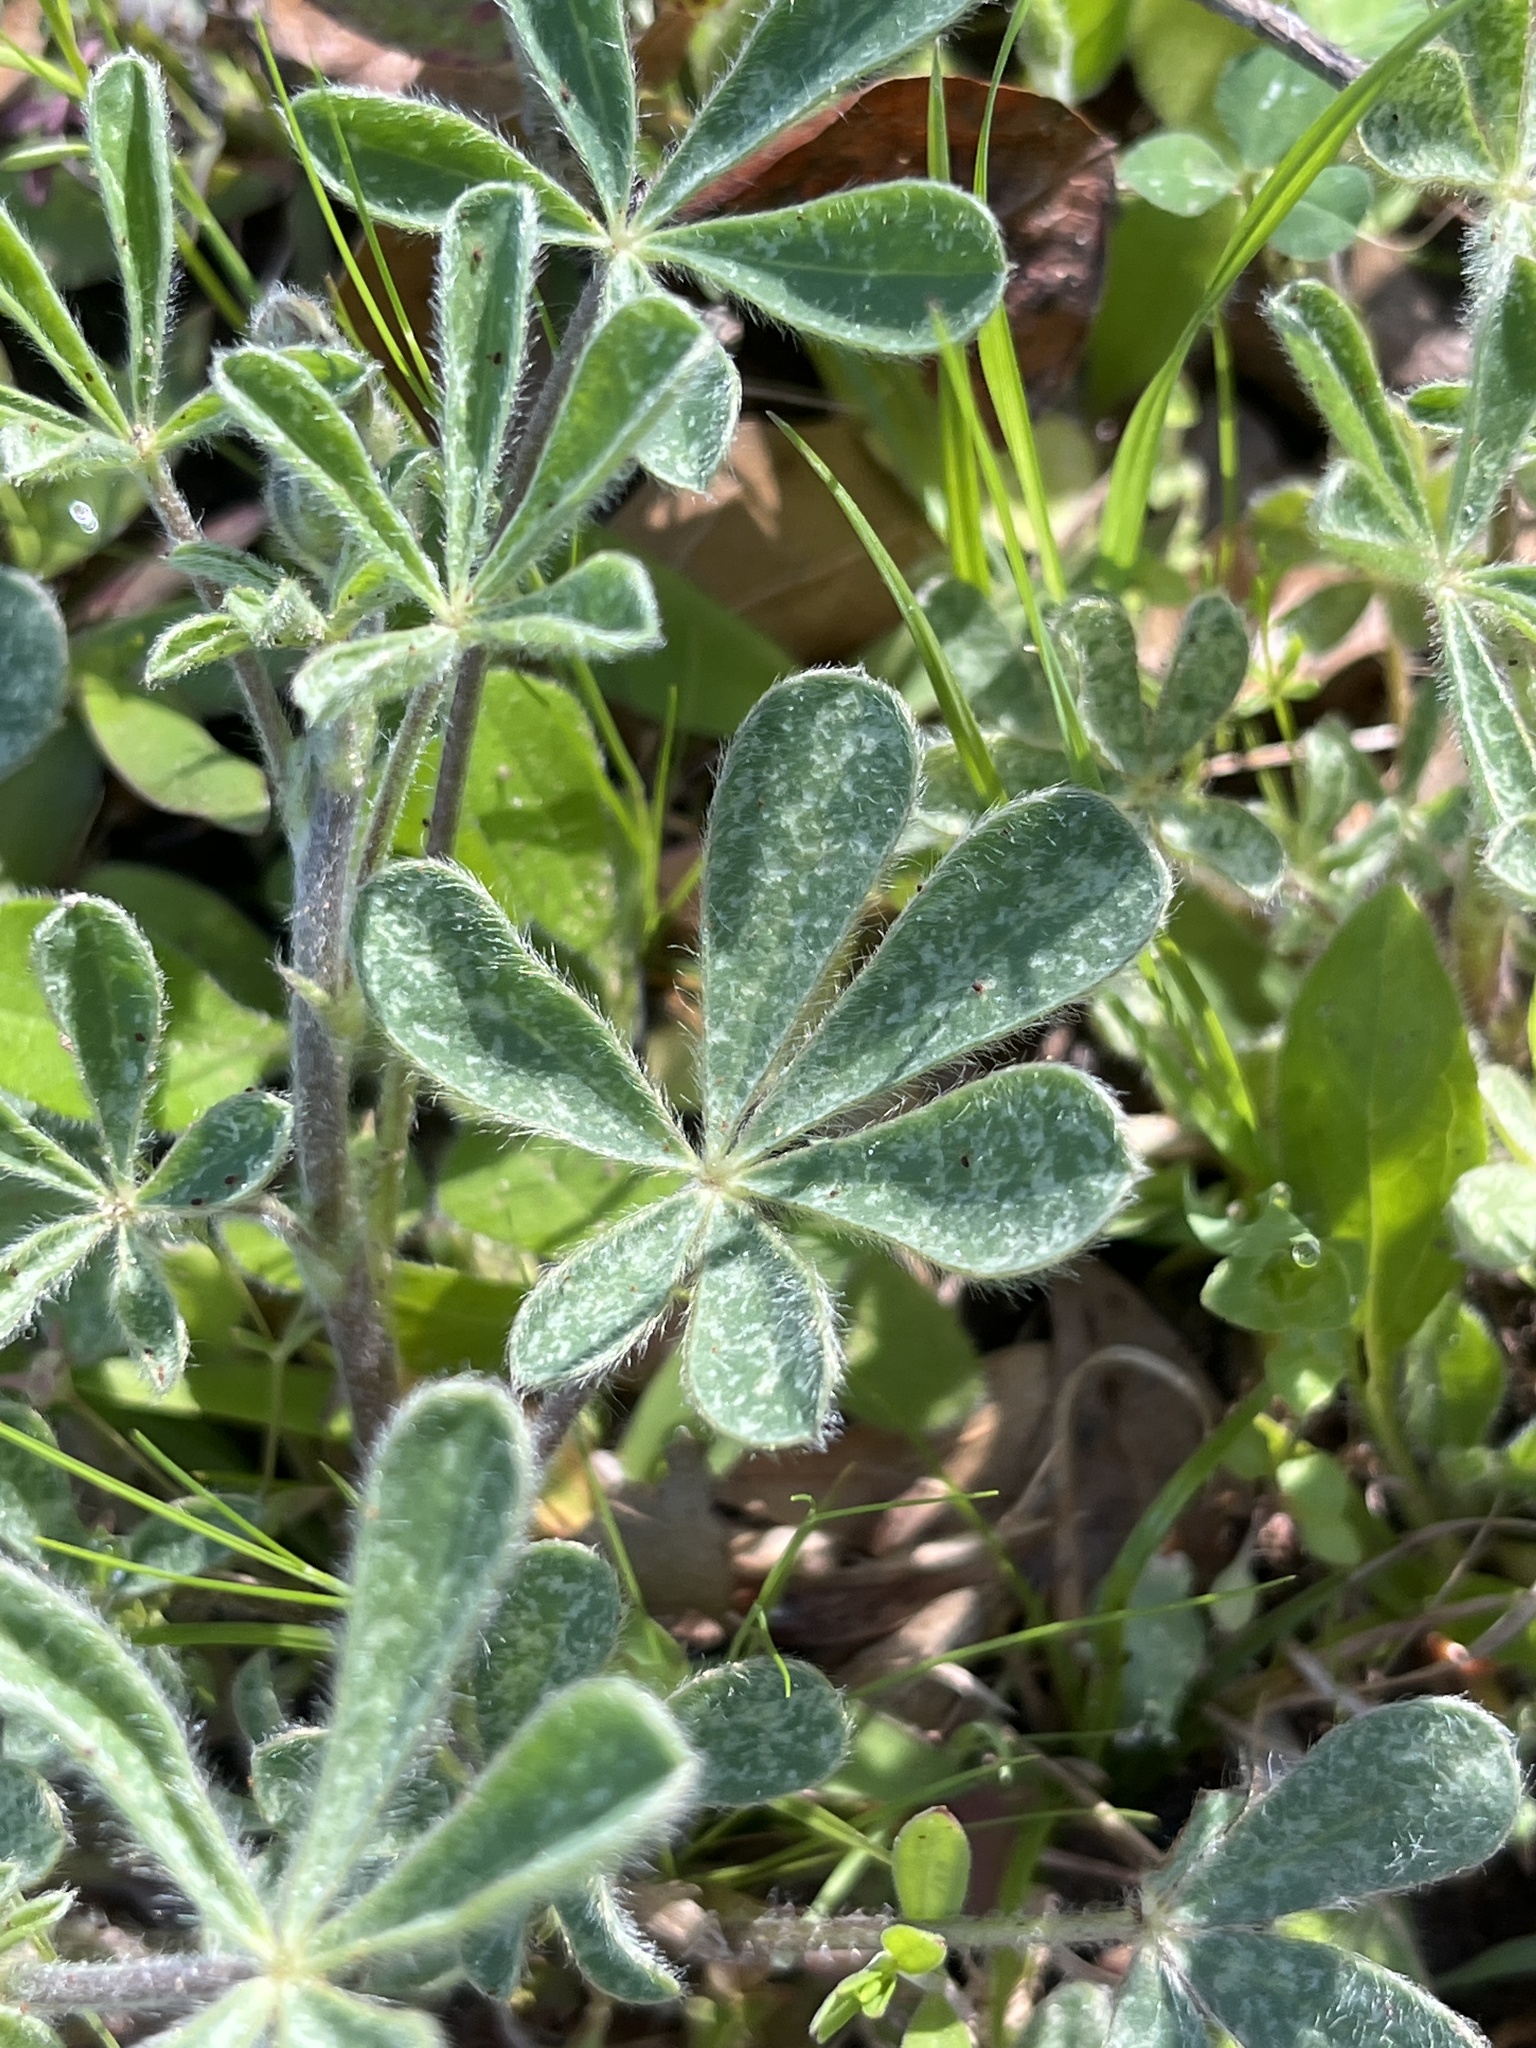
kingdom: Plantae
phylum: Tracheophyta
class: Magnoliopsida
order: Fabales
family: Fabaceae
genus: Lupinus
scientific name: Lupinus subcarnosus
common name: Texas bluebonnet
